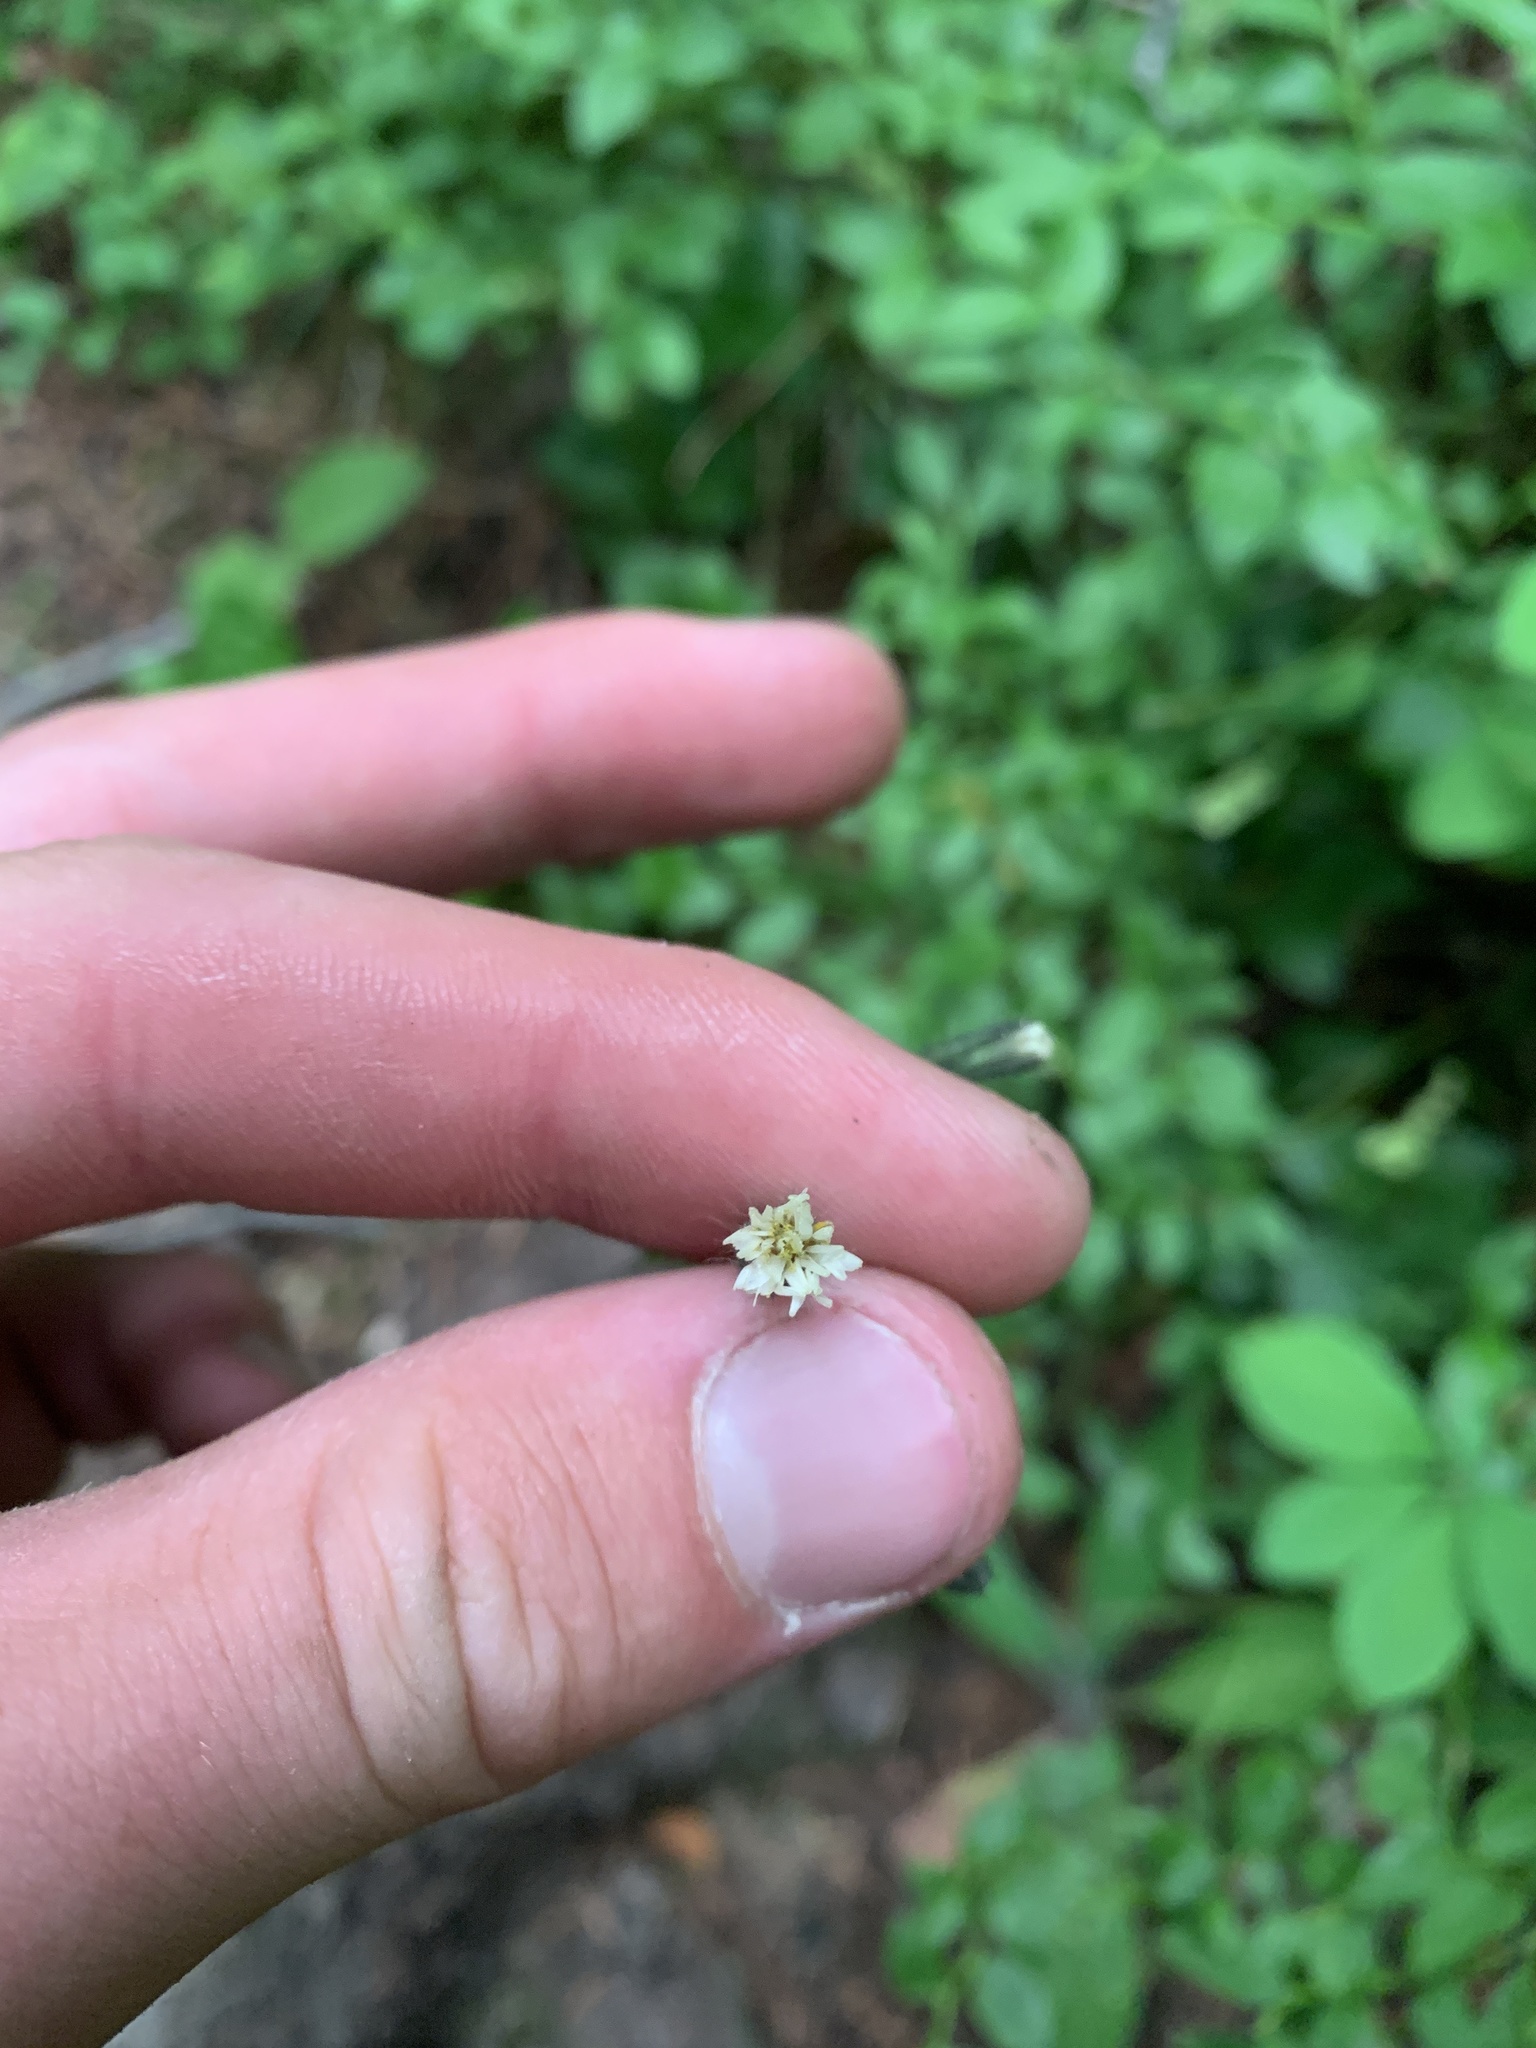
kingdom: Plantae
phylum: Tracheophyta
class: Magnoliopsida
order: Asterales
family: Asteraceae
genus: Hieracium
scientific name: Hieracium albiflorum
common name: White hawkweed
